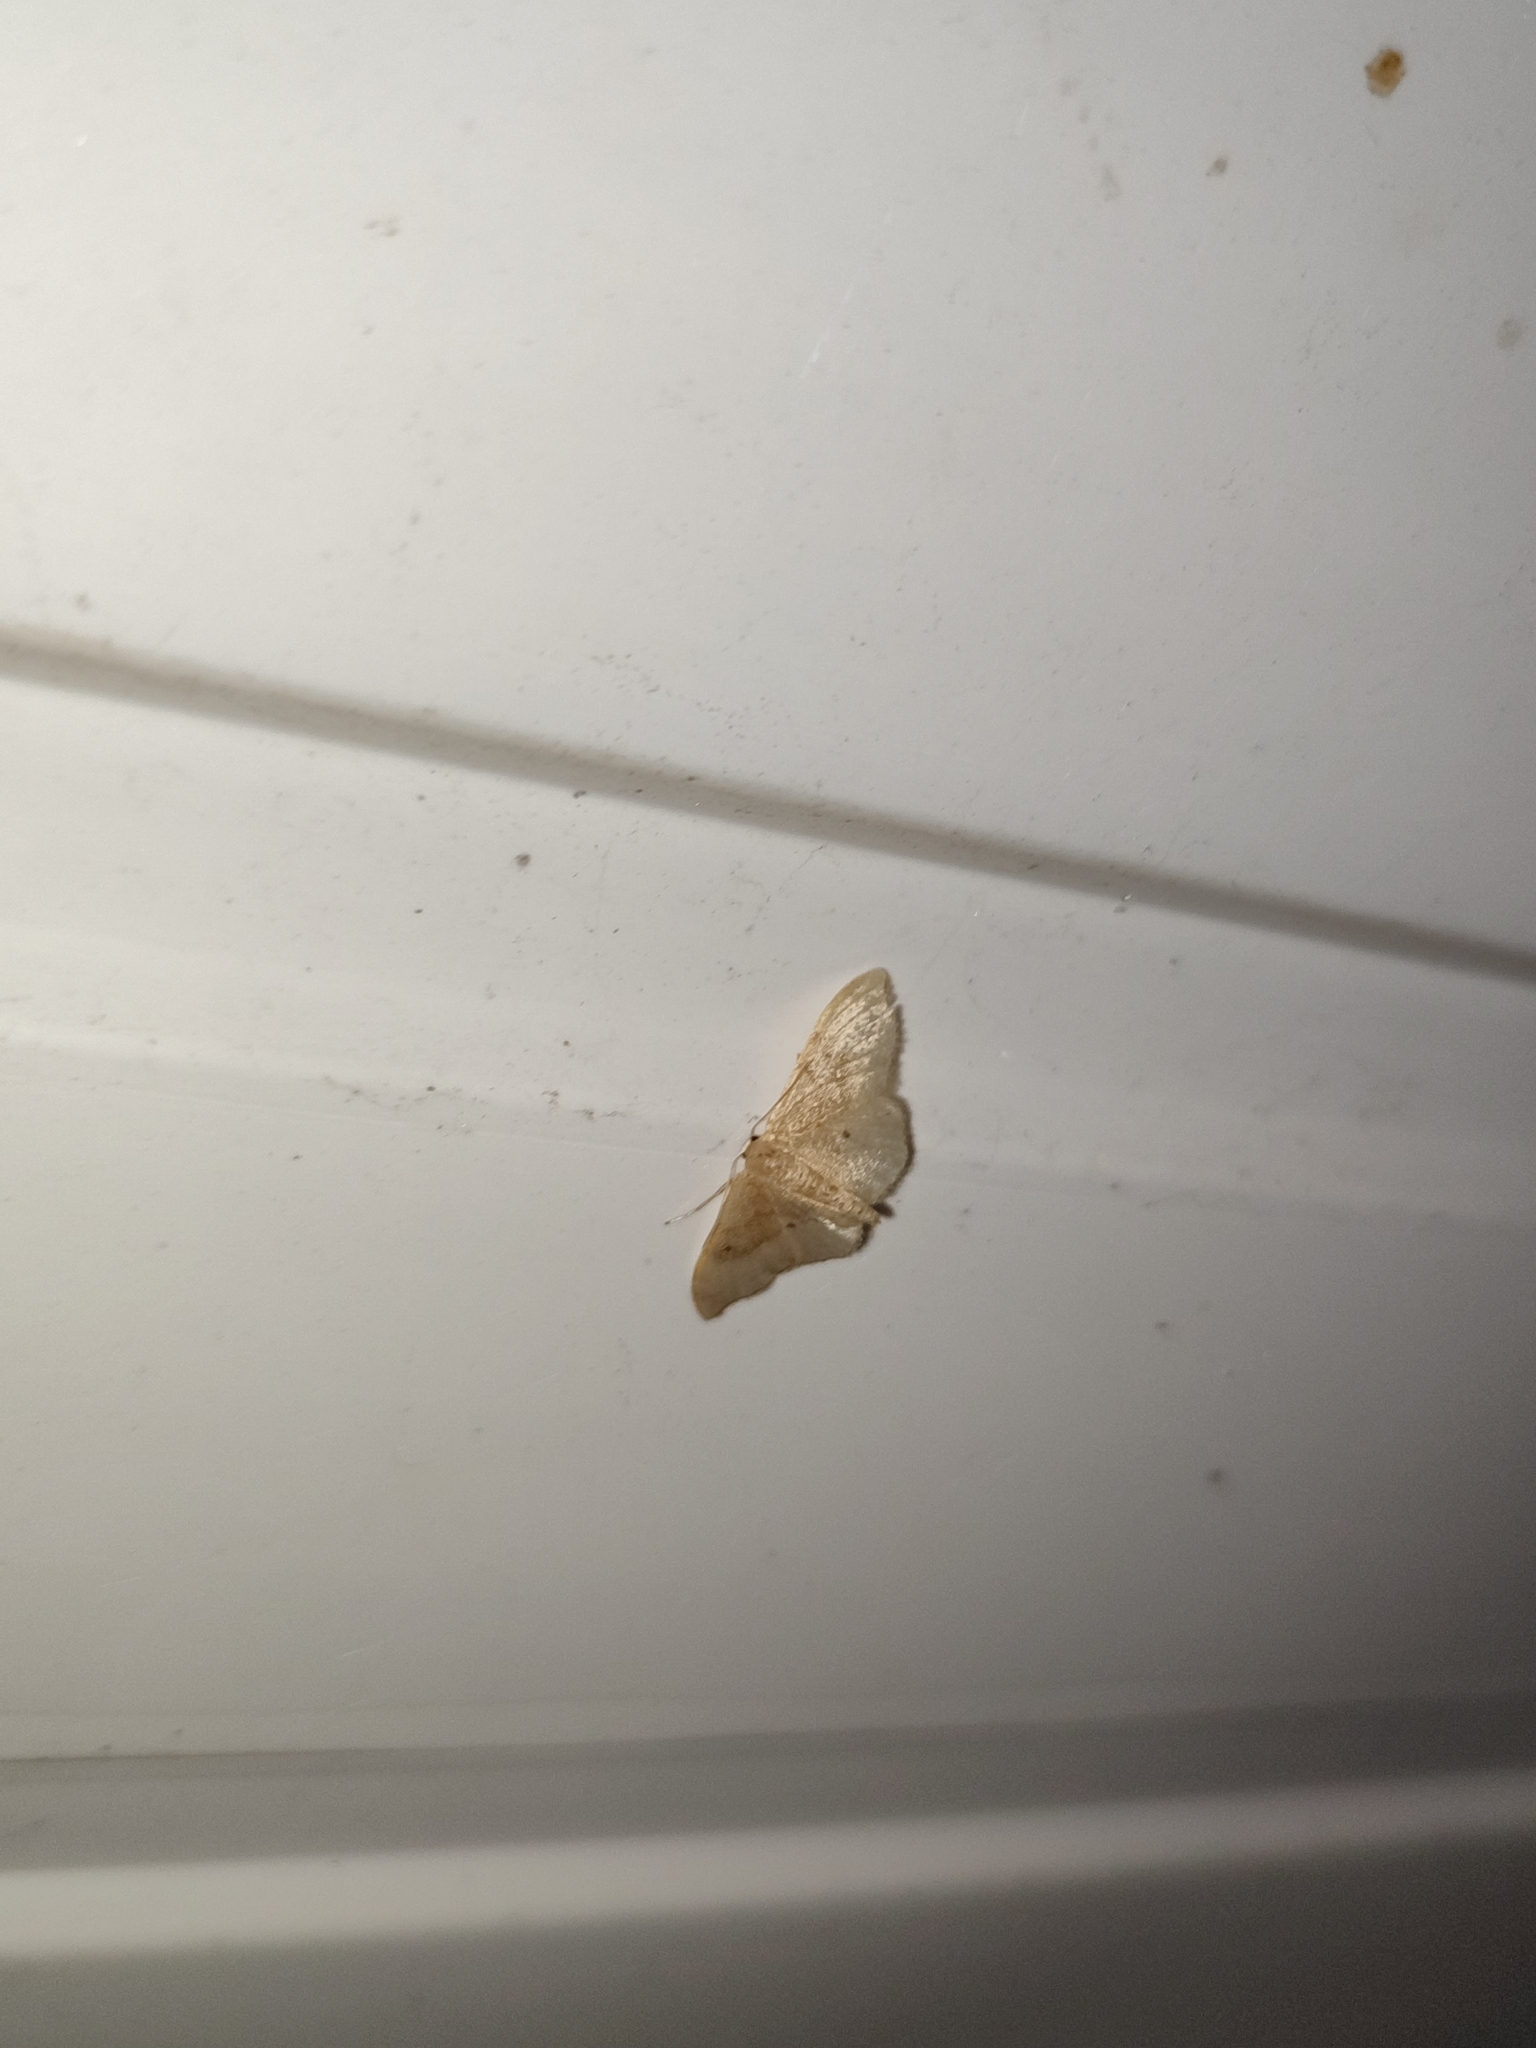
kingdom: Animalia
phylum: Arthropoda
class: Insecta
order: Lepidoptera
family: Geometridae
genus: Idaea
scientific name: Idaea degeneraria
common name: Portland ribbon wave
